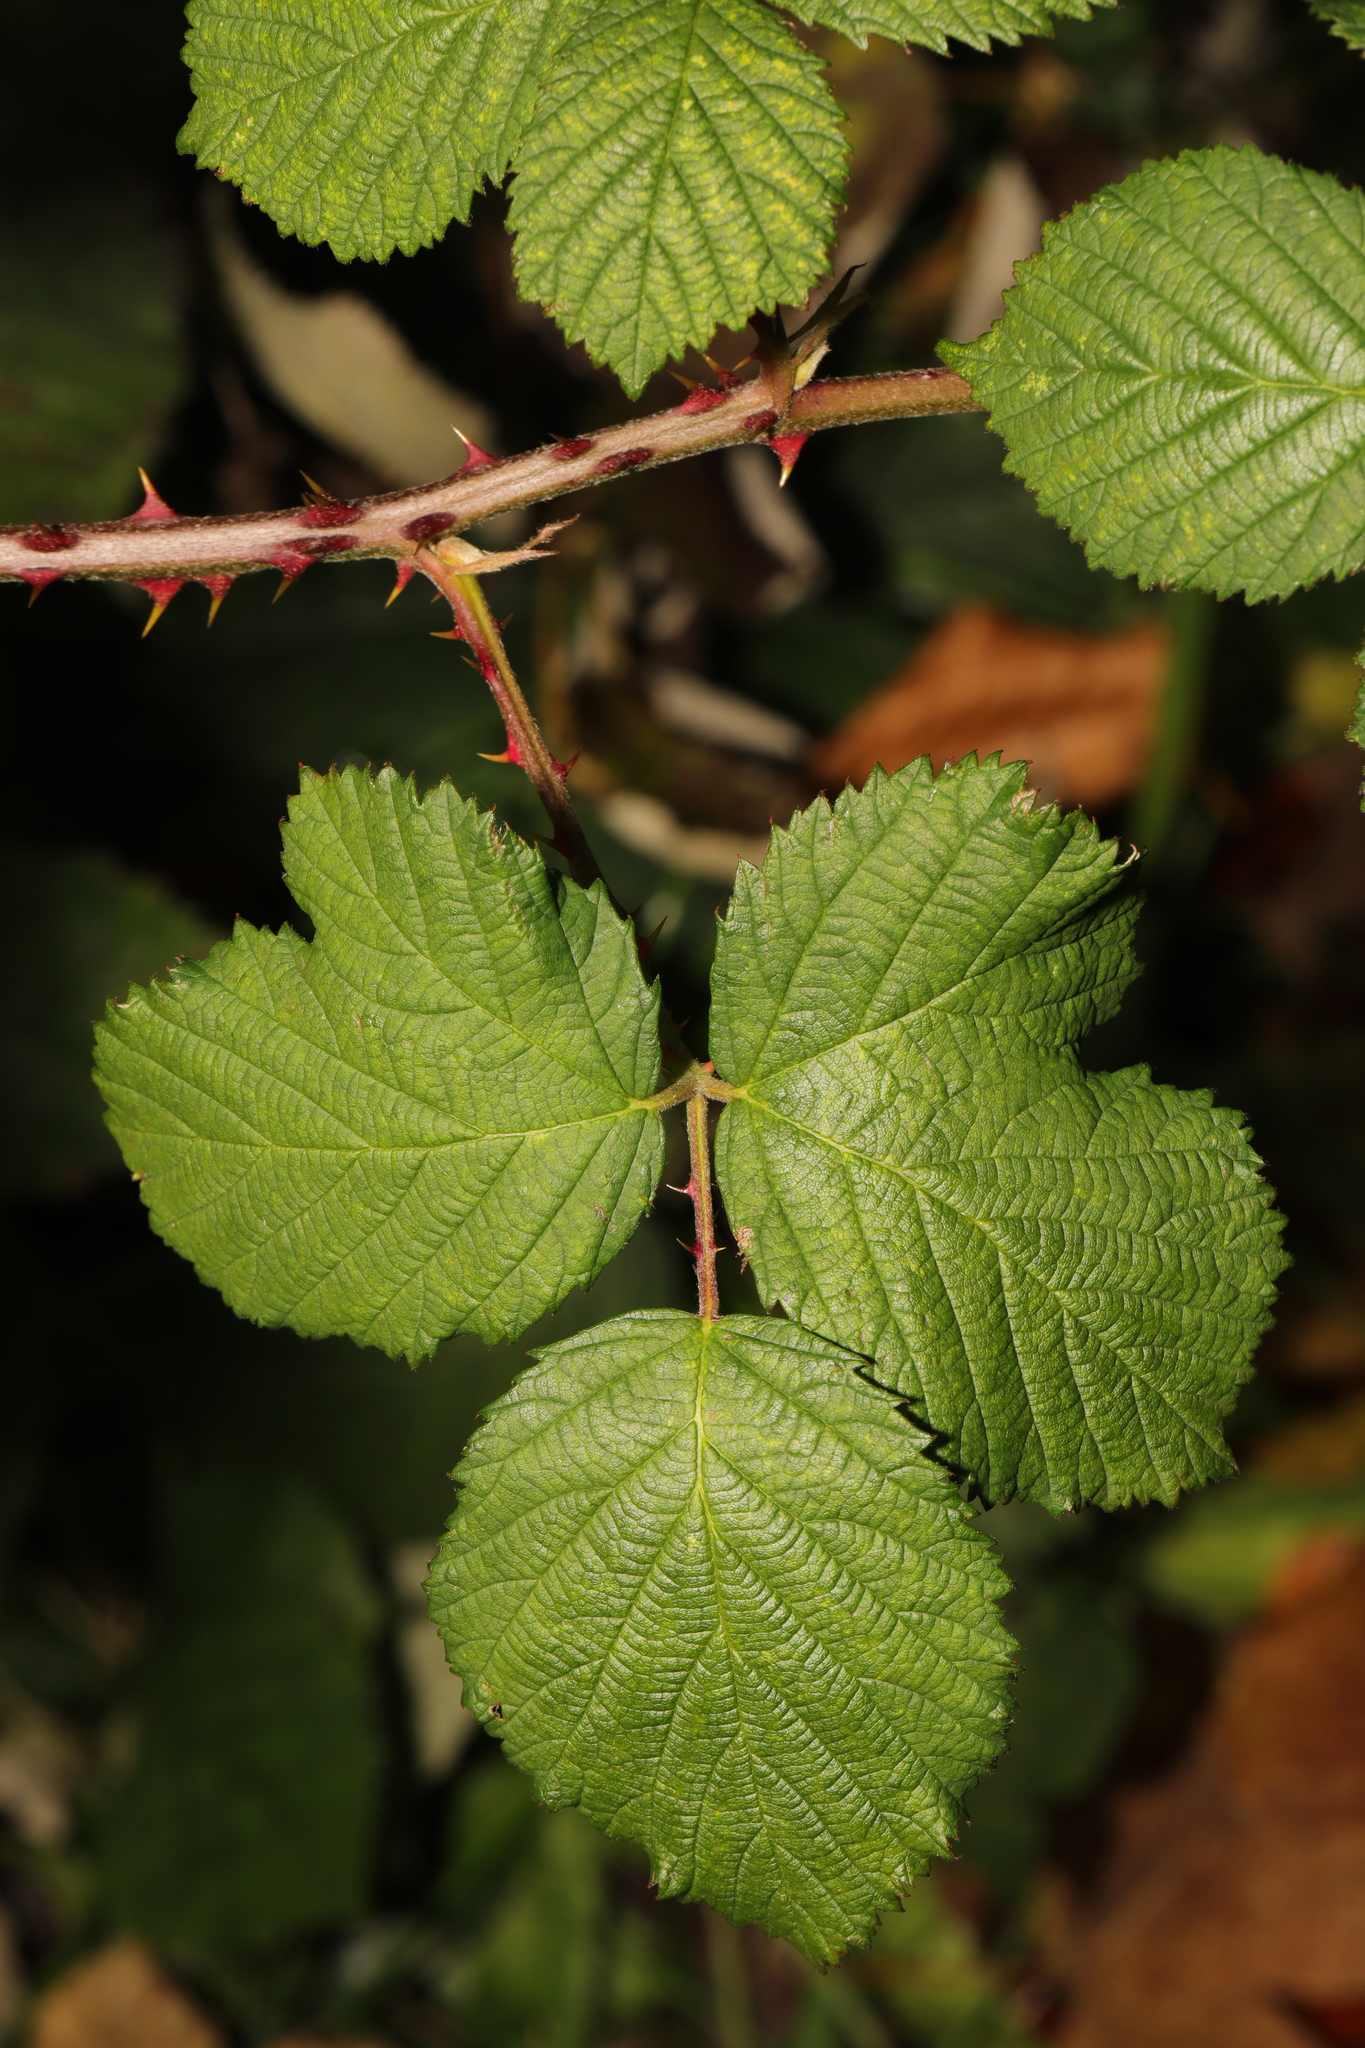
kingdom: Plantae
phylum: Tracheophyta
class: Magnoliopsida
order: Rosales
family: Rosaceae
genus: Rubus
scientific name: Rubus armeniacus
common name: Himalayan blackberry
